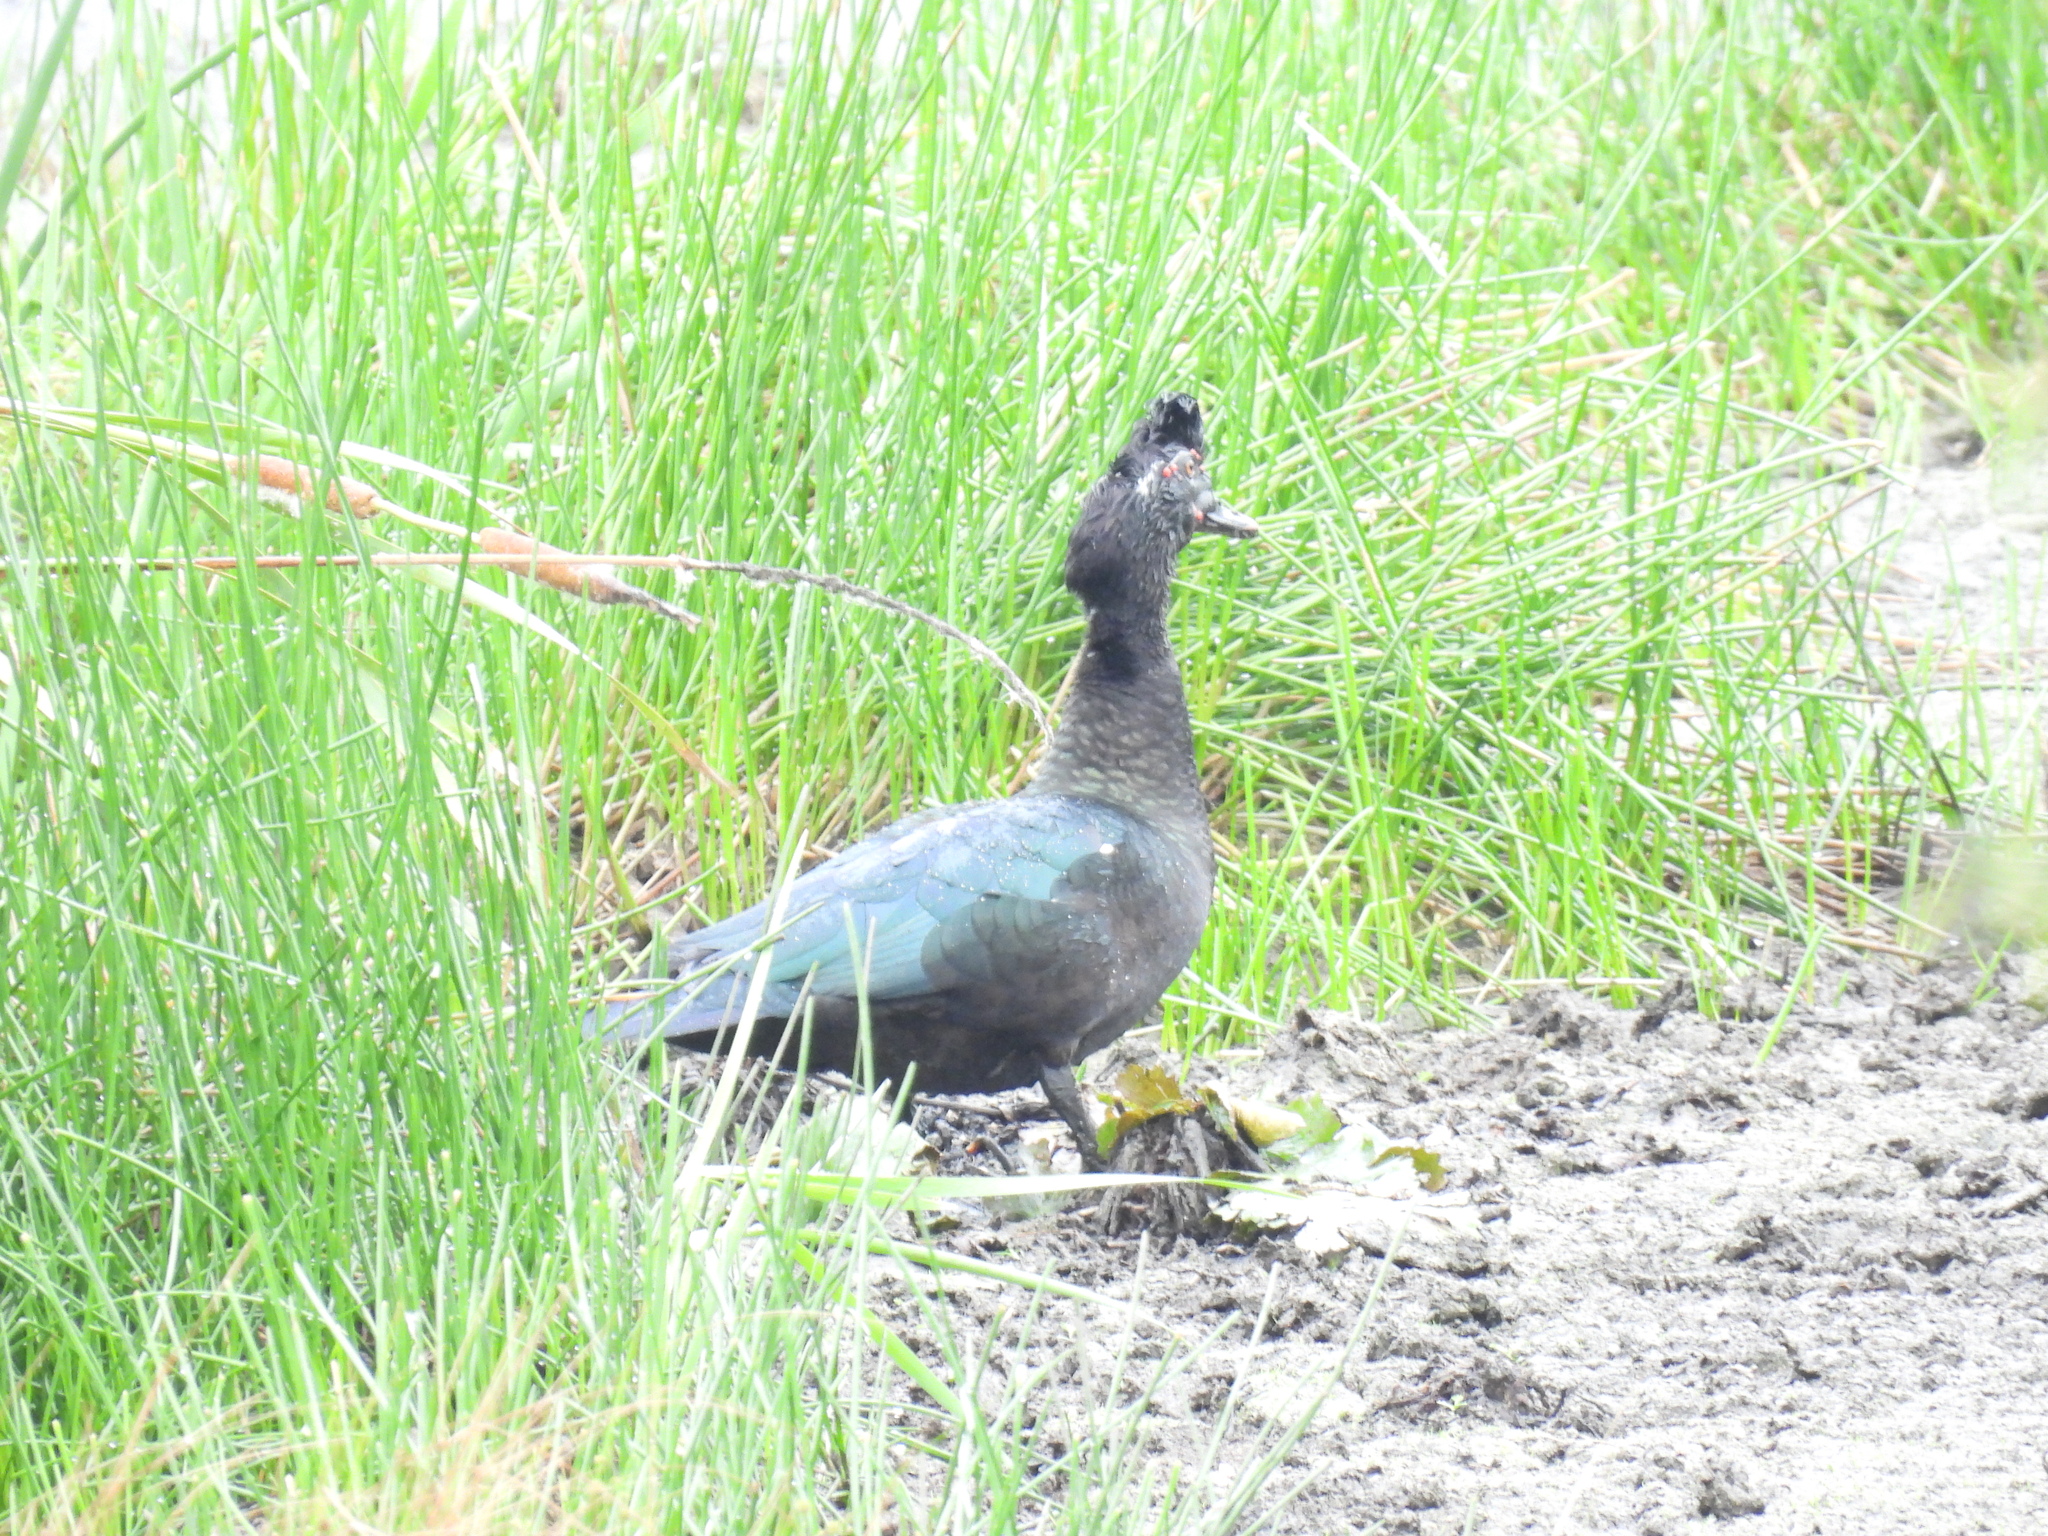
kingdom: Animalia
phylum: Chordata
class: Aves
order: Anseriformes
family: Anatidae
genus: Cairina
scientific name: Cairina moschata
